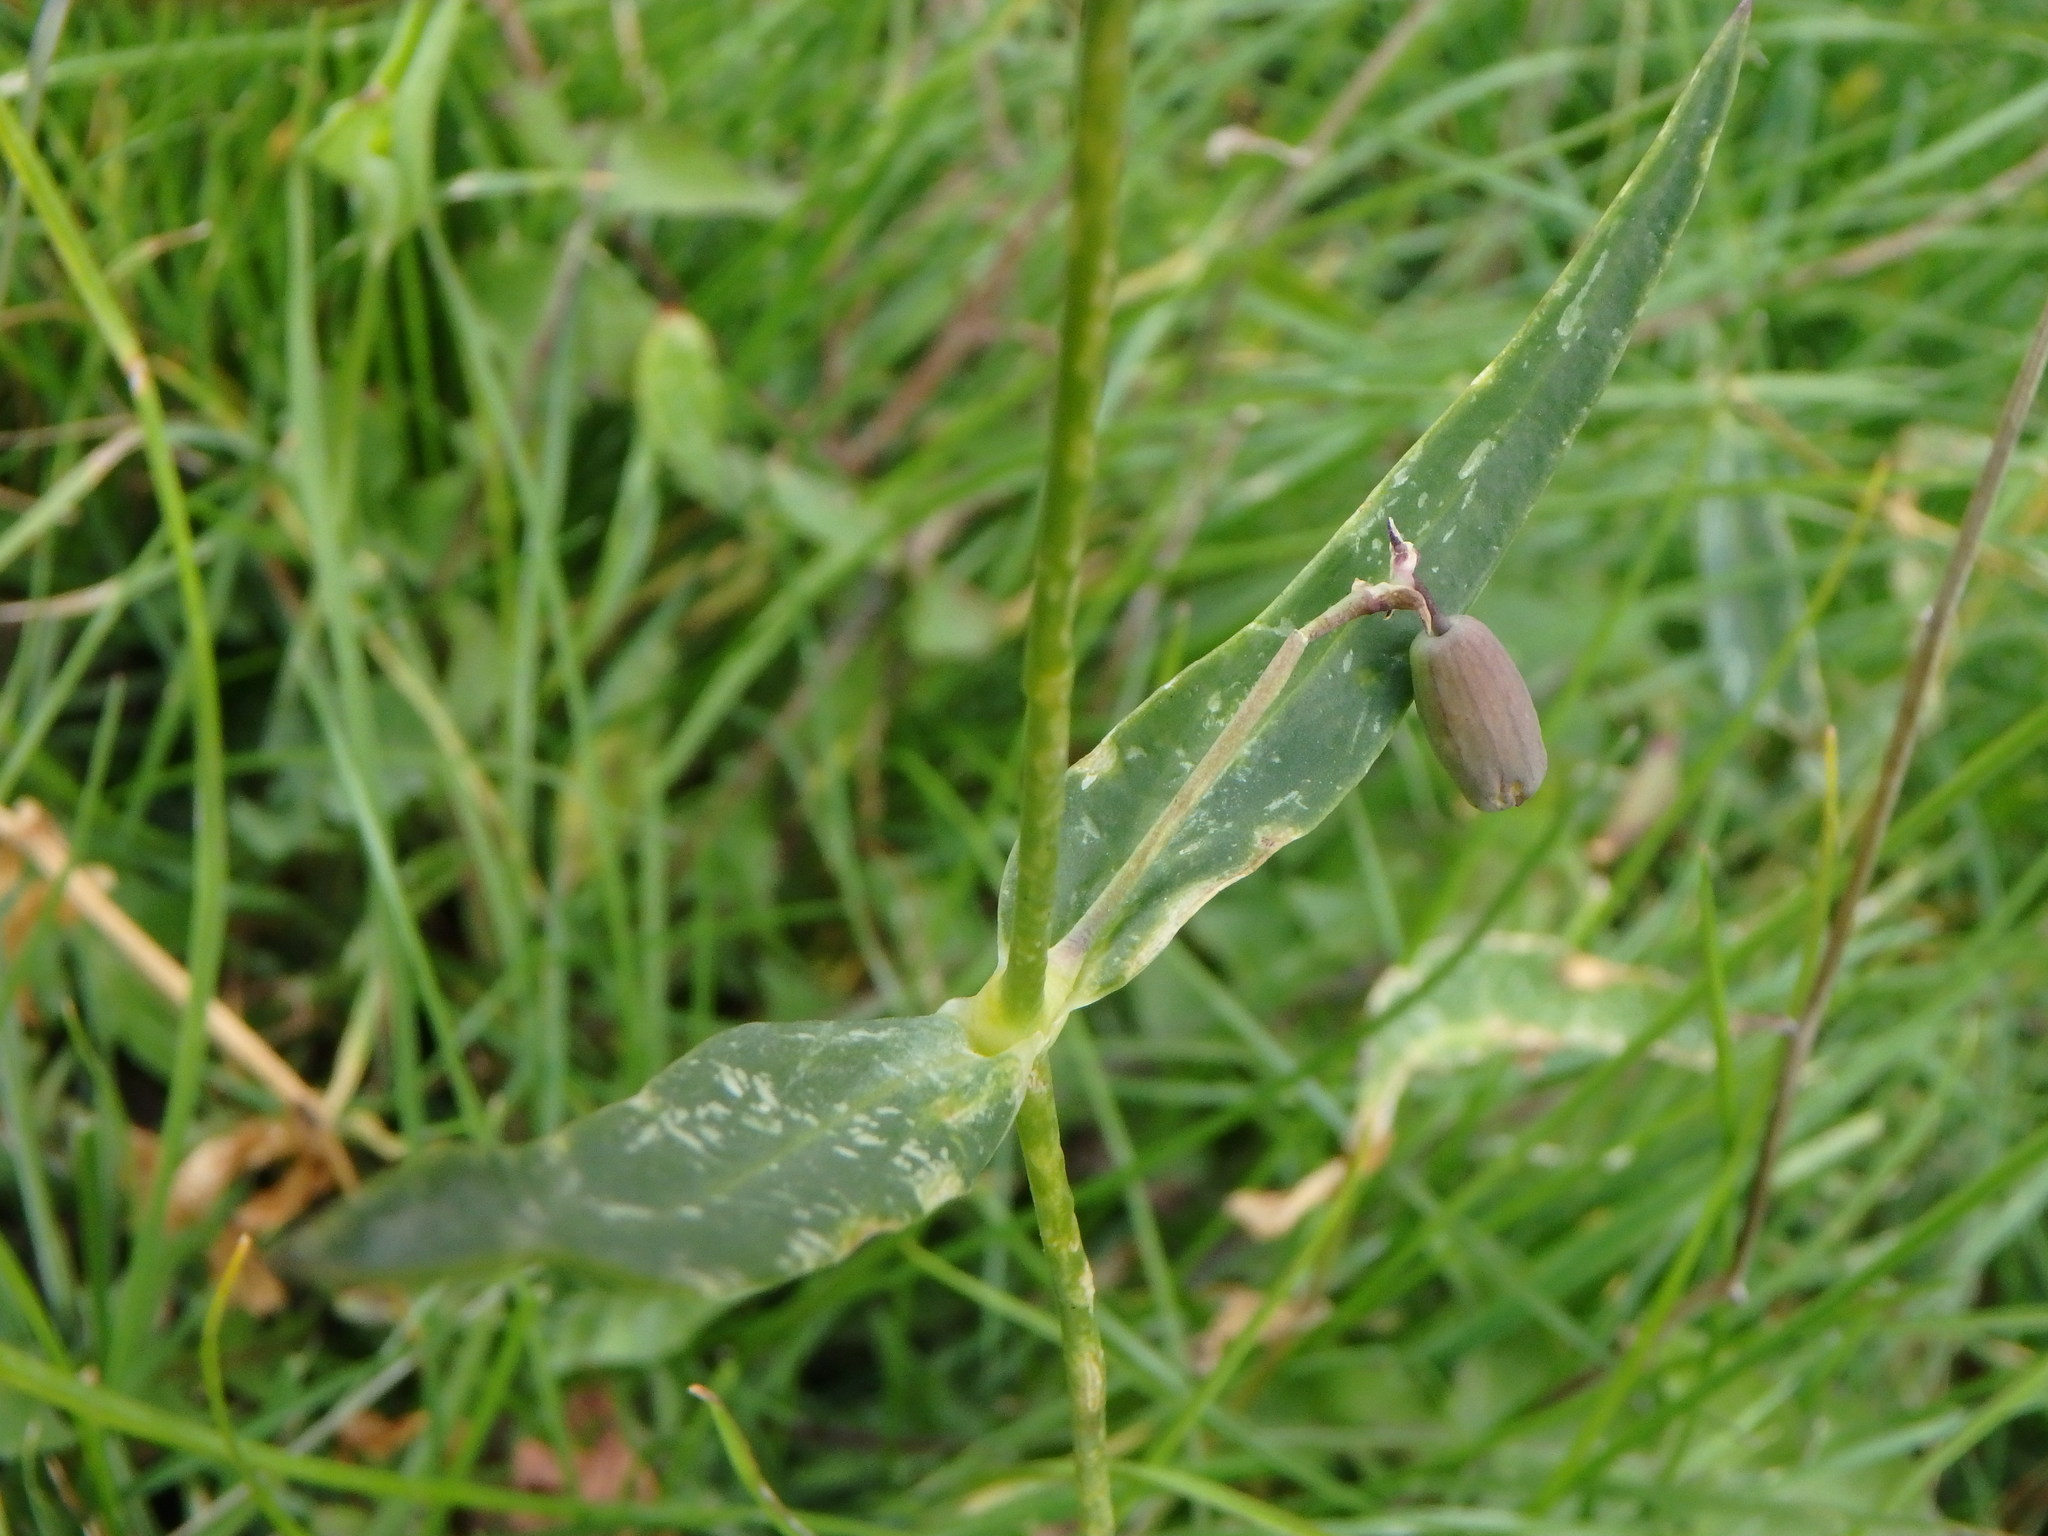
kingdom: Plantae
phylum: Tracheophyta
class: Magnoliopsida
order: Caryophyllales
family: Caryophyllaceae
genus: Silene
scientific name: Silene vulgaris
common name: Bladder campion
